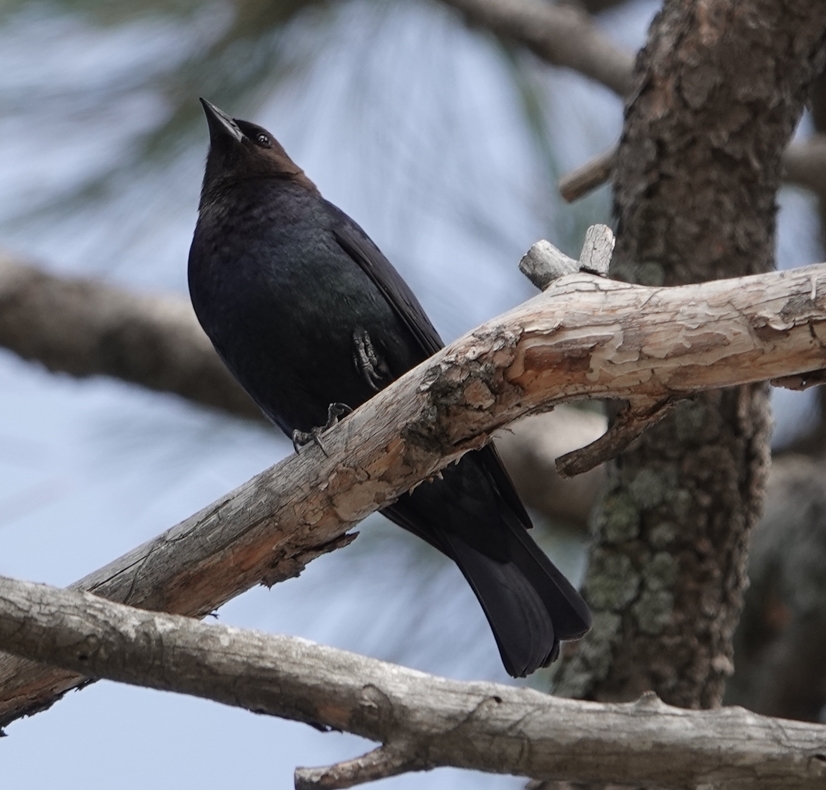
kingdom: Animalia
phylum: Chordata
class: Aves
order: Passeriformes
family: Icteridae
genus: Molothrus
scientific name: Molothrus ater
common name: Brown-headed cowbird
